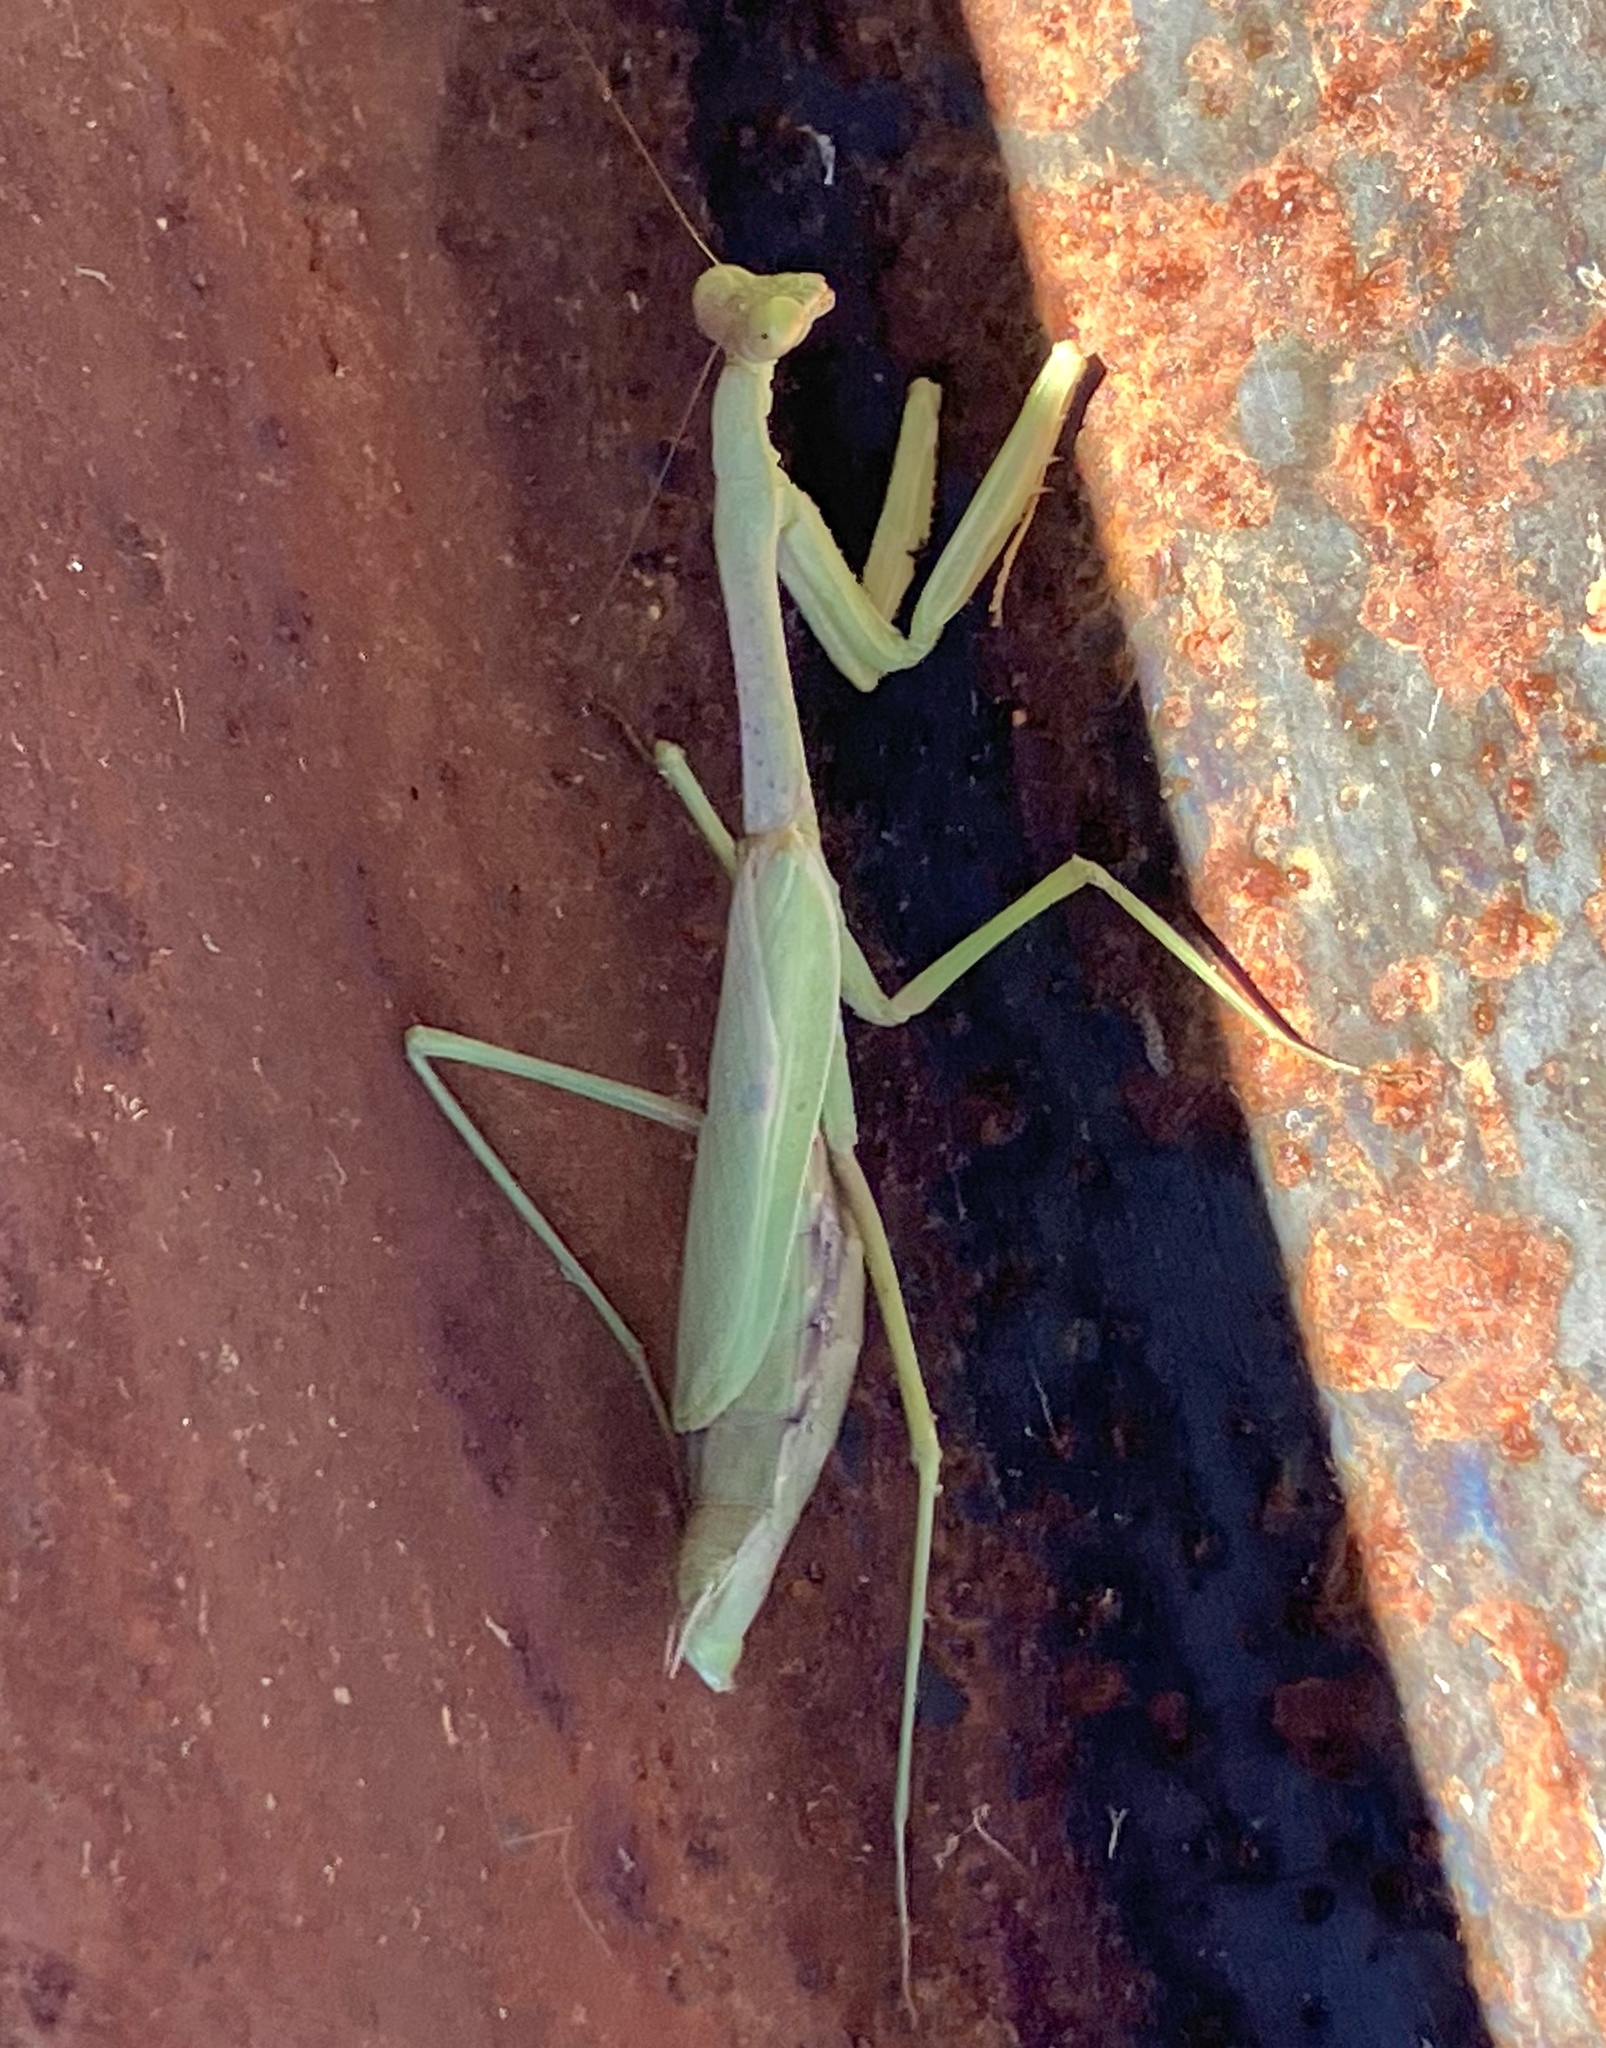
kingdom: Animalia
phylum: Arthropoda
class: Insecta
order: Mantodea
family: Mantidae
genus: Stagmomantis
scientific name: Stagmomantis carolina
